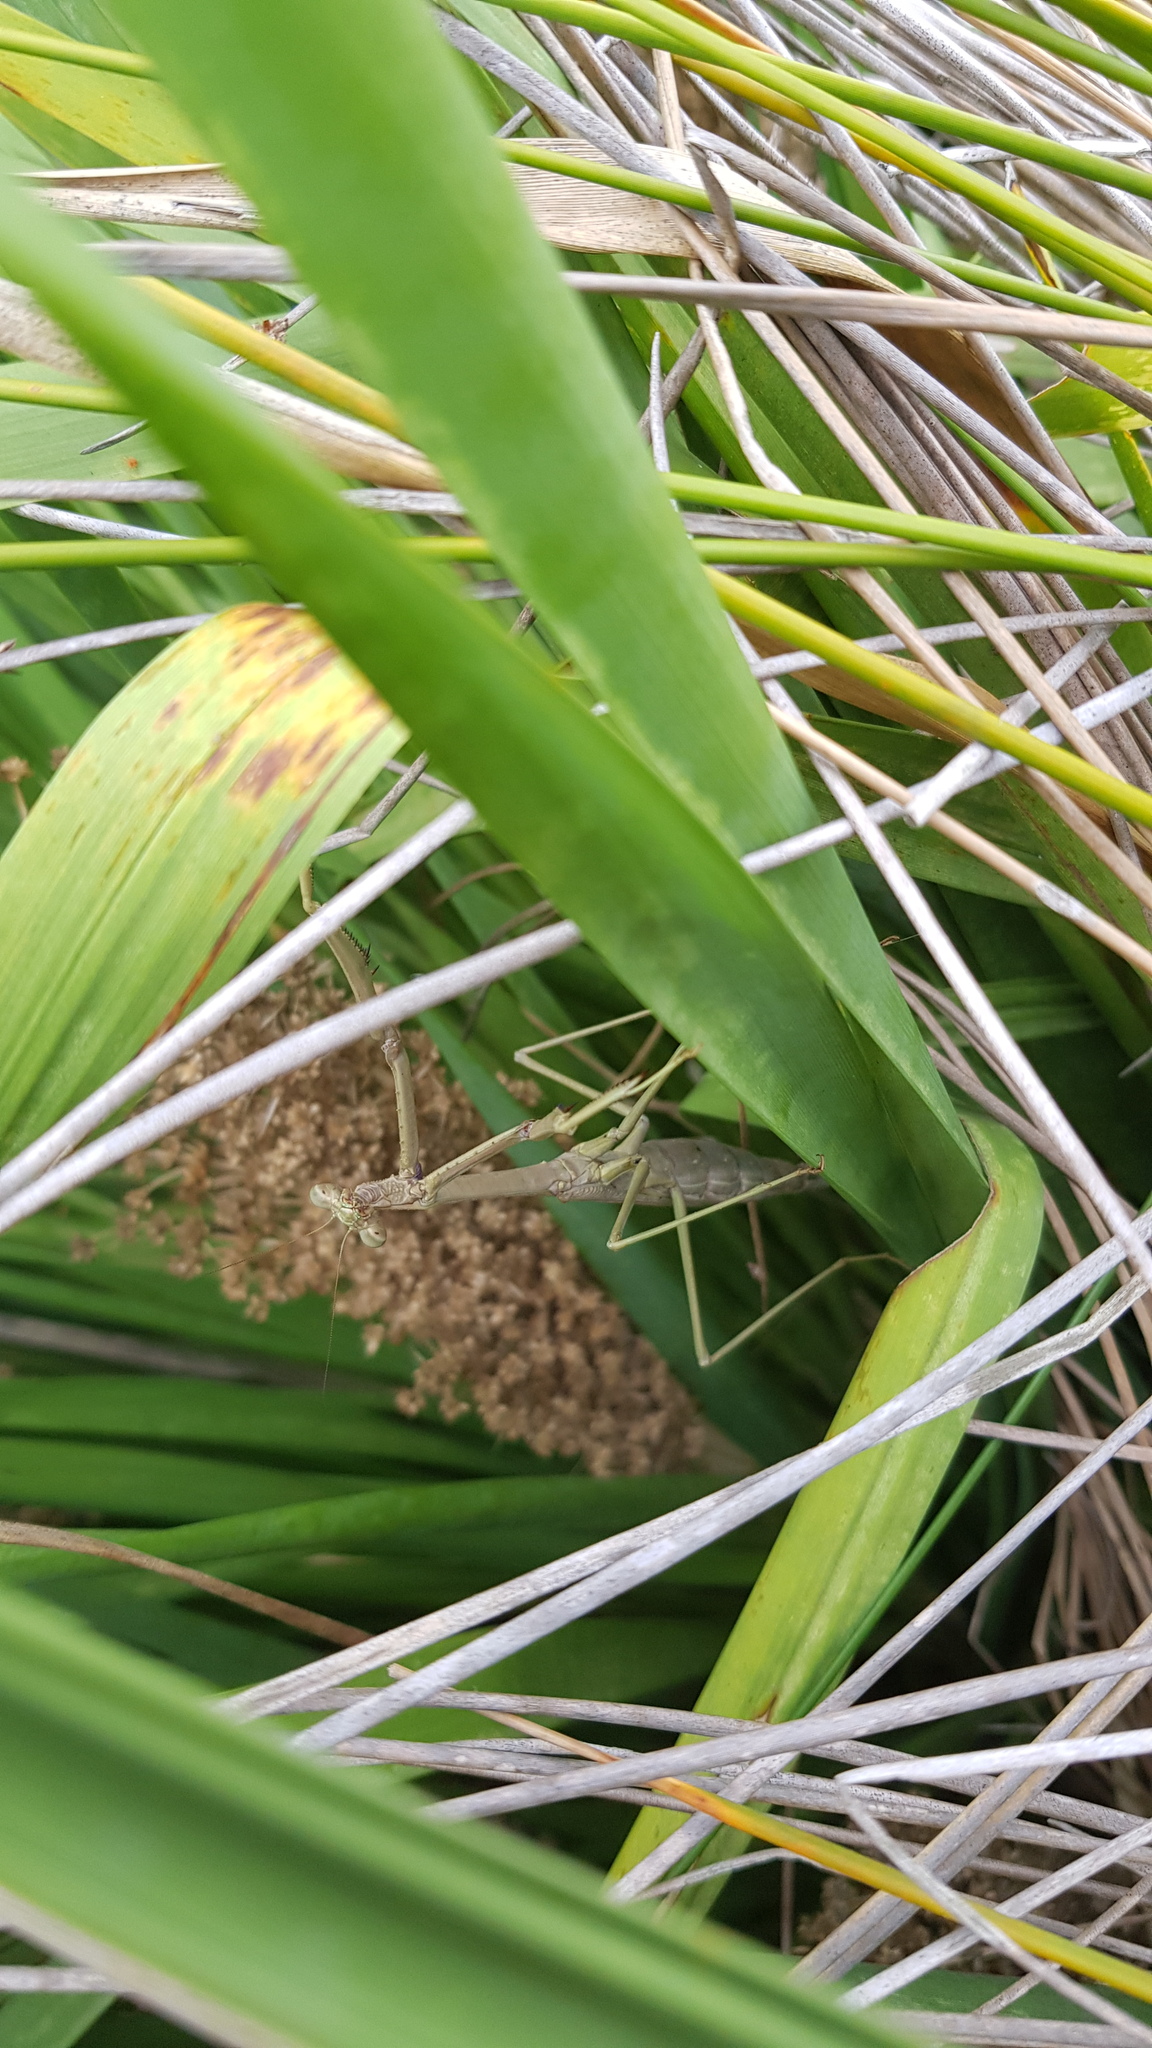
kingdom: Animalia
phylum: Arthropoda
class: Insecta
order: Mantodea
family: Mantidae
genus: Archimantis
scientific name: Archimantis latistyla
